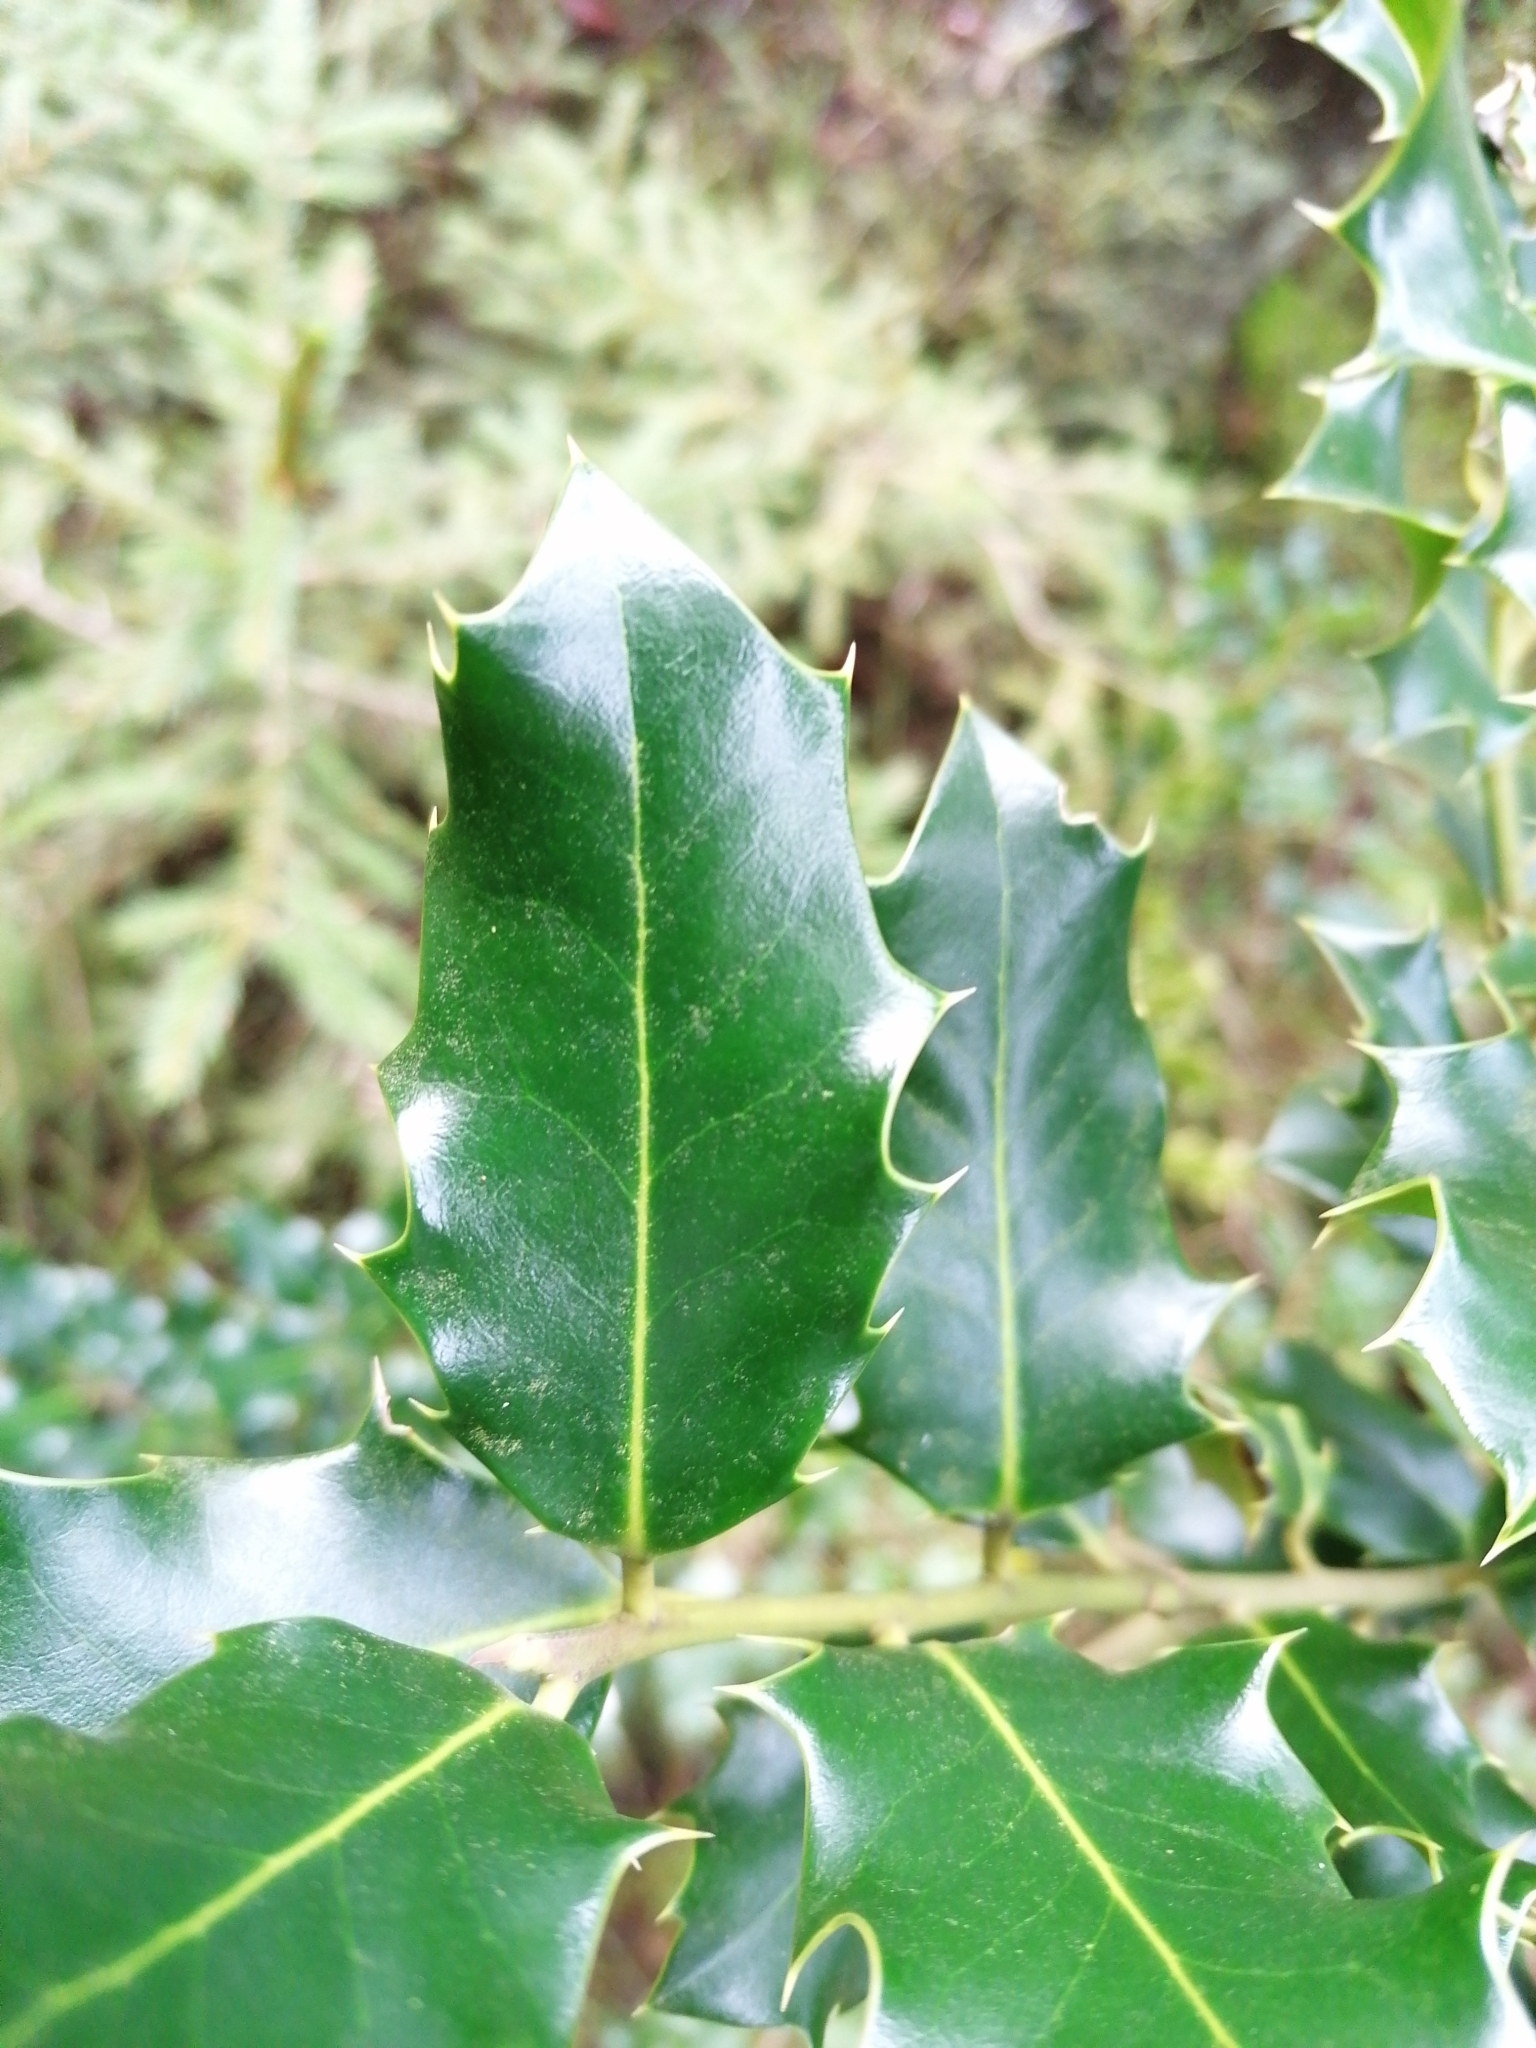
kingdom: Plantae
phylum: Tracheophyta
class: Magnoliopsida
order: Aquifoliales
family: Aquifoliaceae
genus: Ilex
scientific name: Ilex aquifolium
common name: English holly
